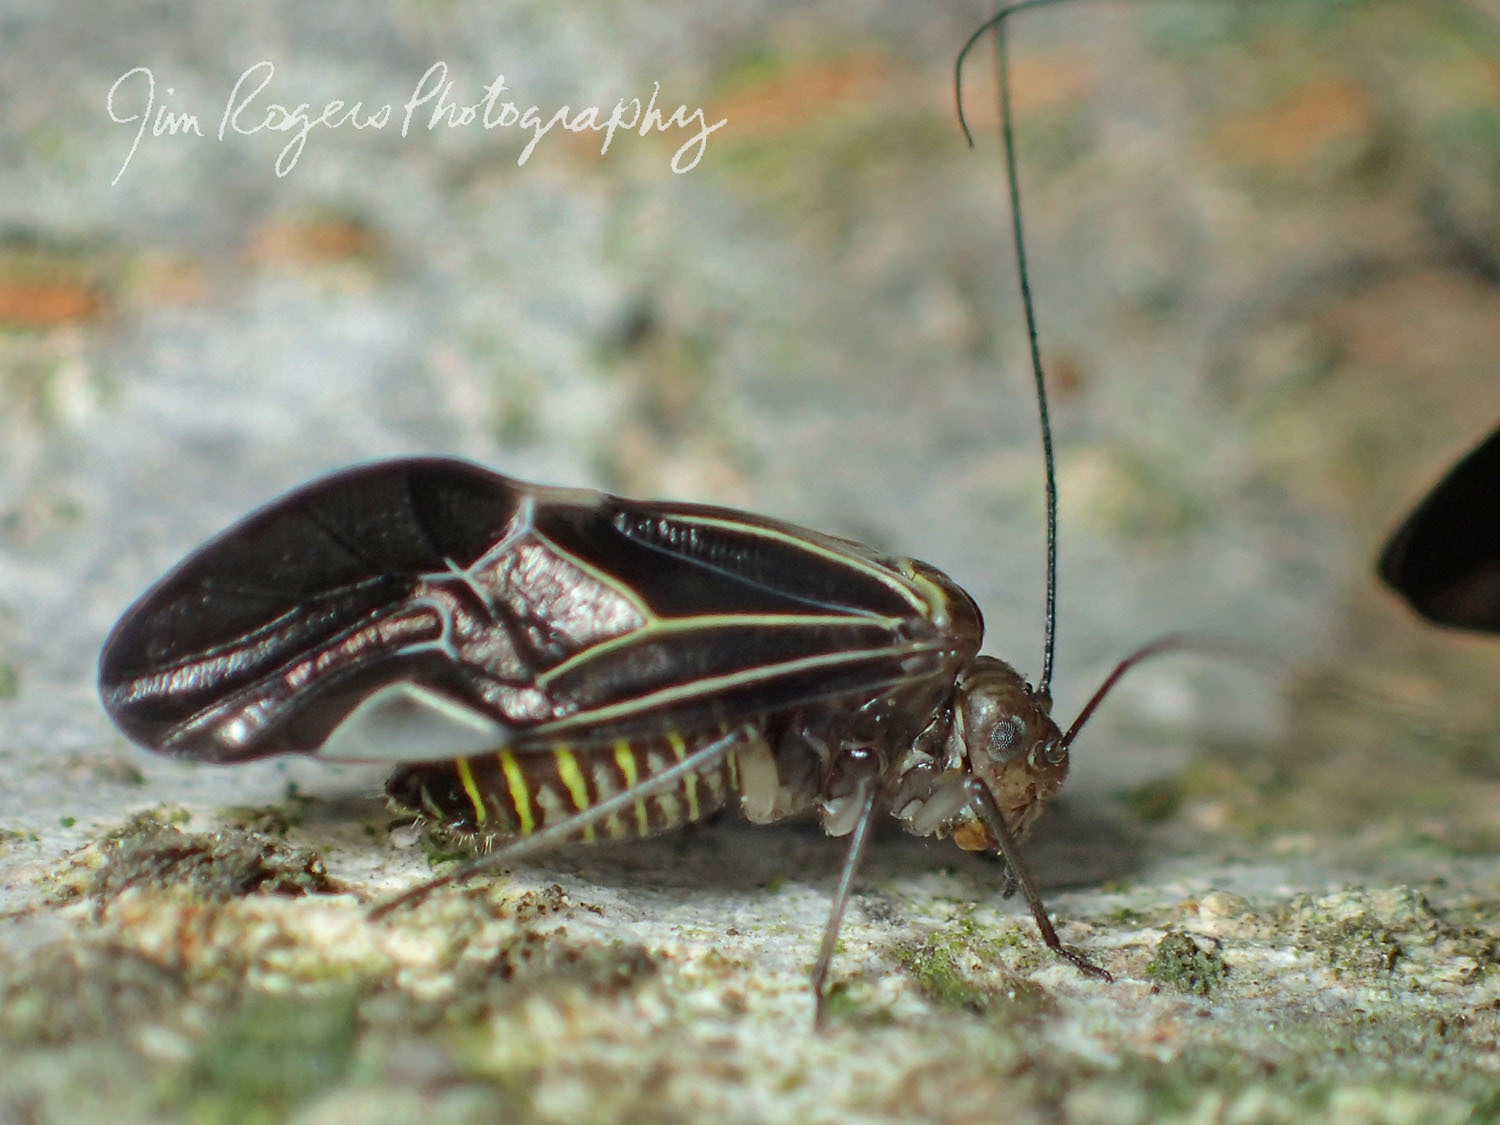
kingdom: Animalia
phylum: Arthropoda
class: Insecta
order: Psocodea
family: Psocidae
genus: Cerastipsocus
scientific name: Cerastipsocus venosus
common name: Tree cattle
